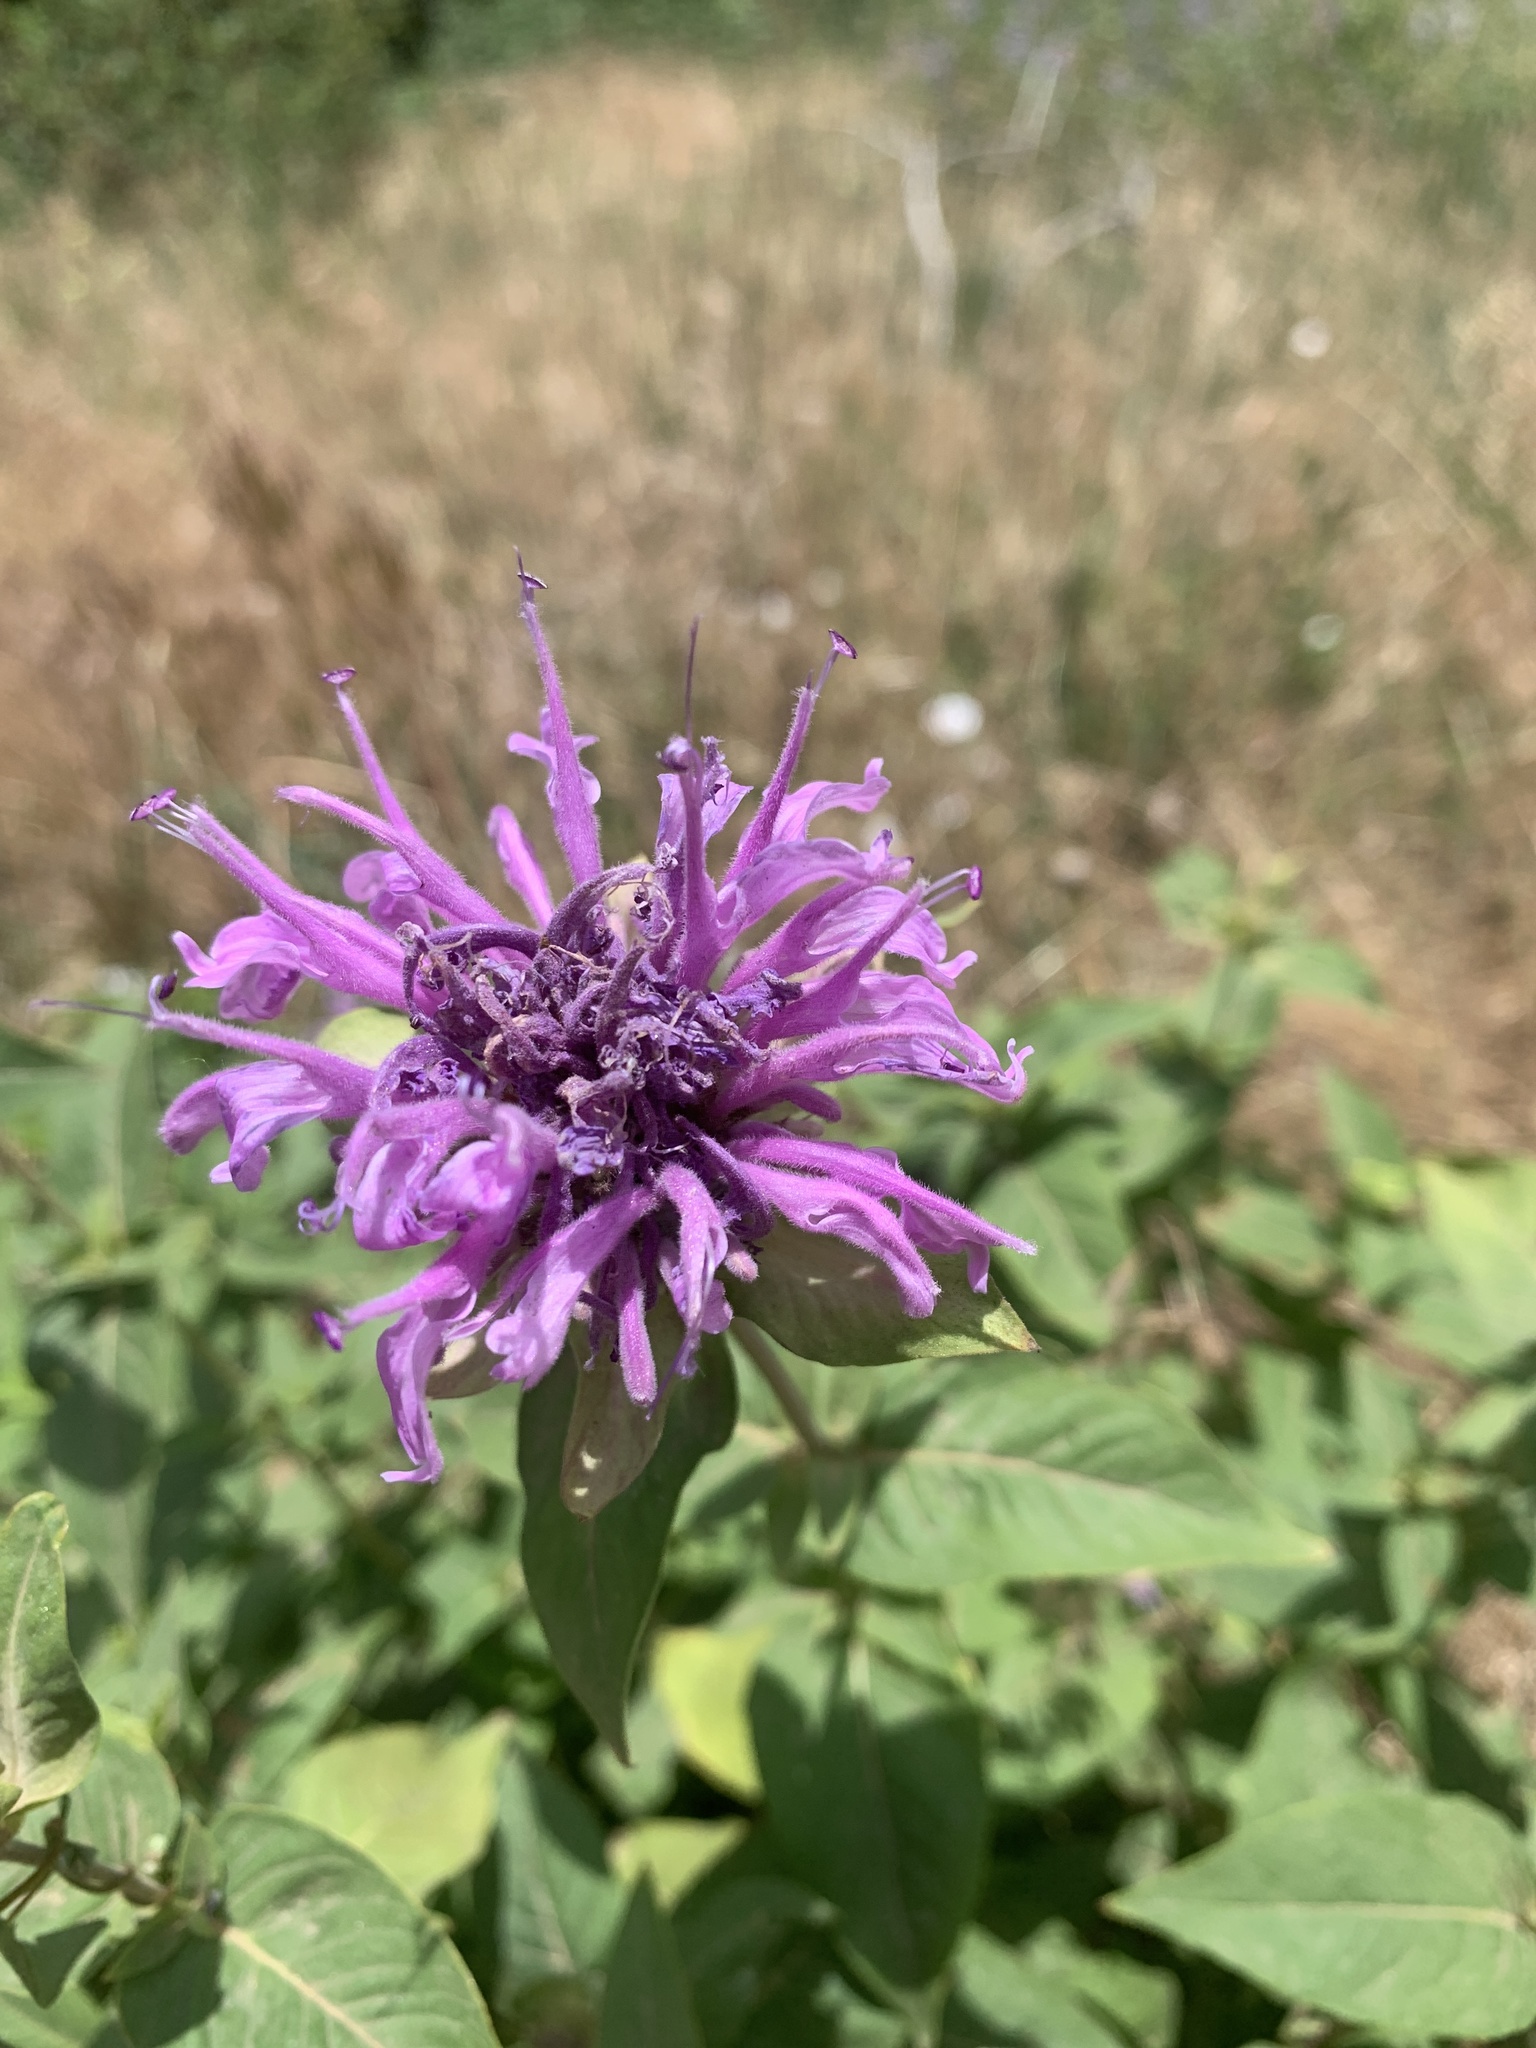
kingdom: Plantae
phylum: Tracheophyta
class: Magnoliopsida
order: Lamiales
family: Lamiaceae
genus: Monarda
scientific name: Monarda fistulosa
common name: Purple beebalm
